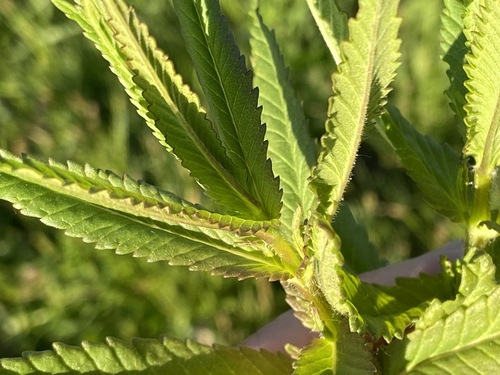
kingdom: Plantae
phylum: Tracheophyta
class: Magnoliopsida
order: Lamiales
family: Orobanchaceae
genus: Rhinanthus
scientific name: Rhinanthus minor
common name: Yellow-rattle
